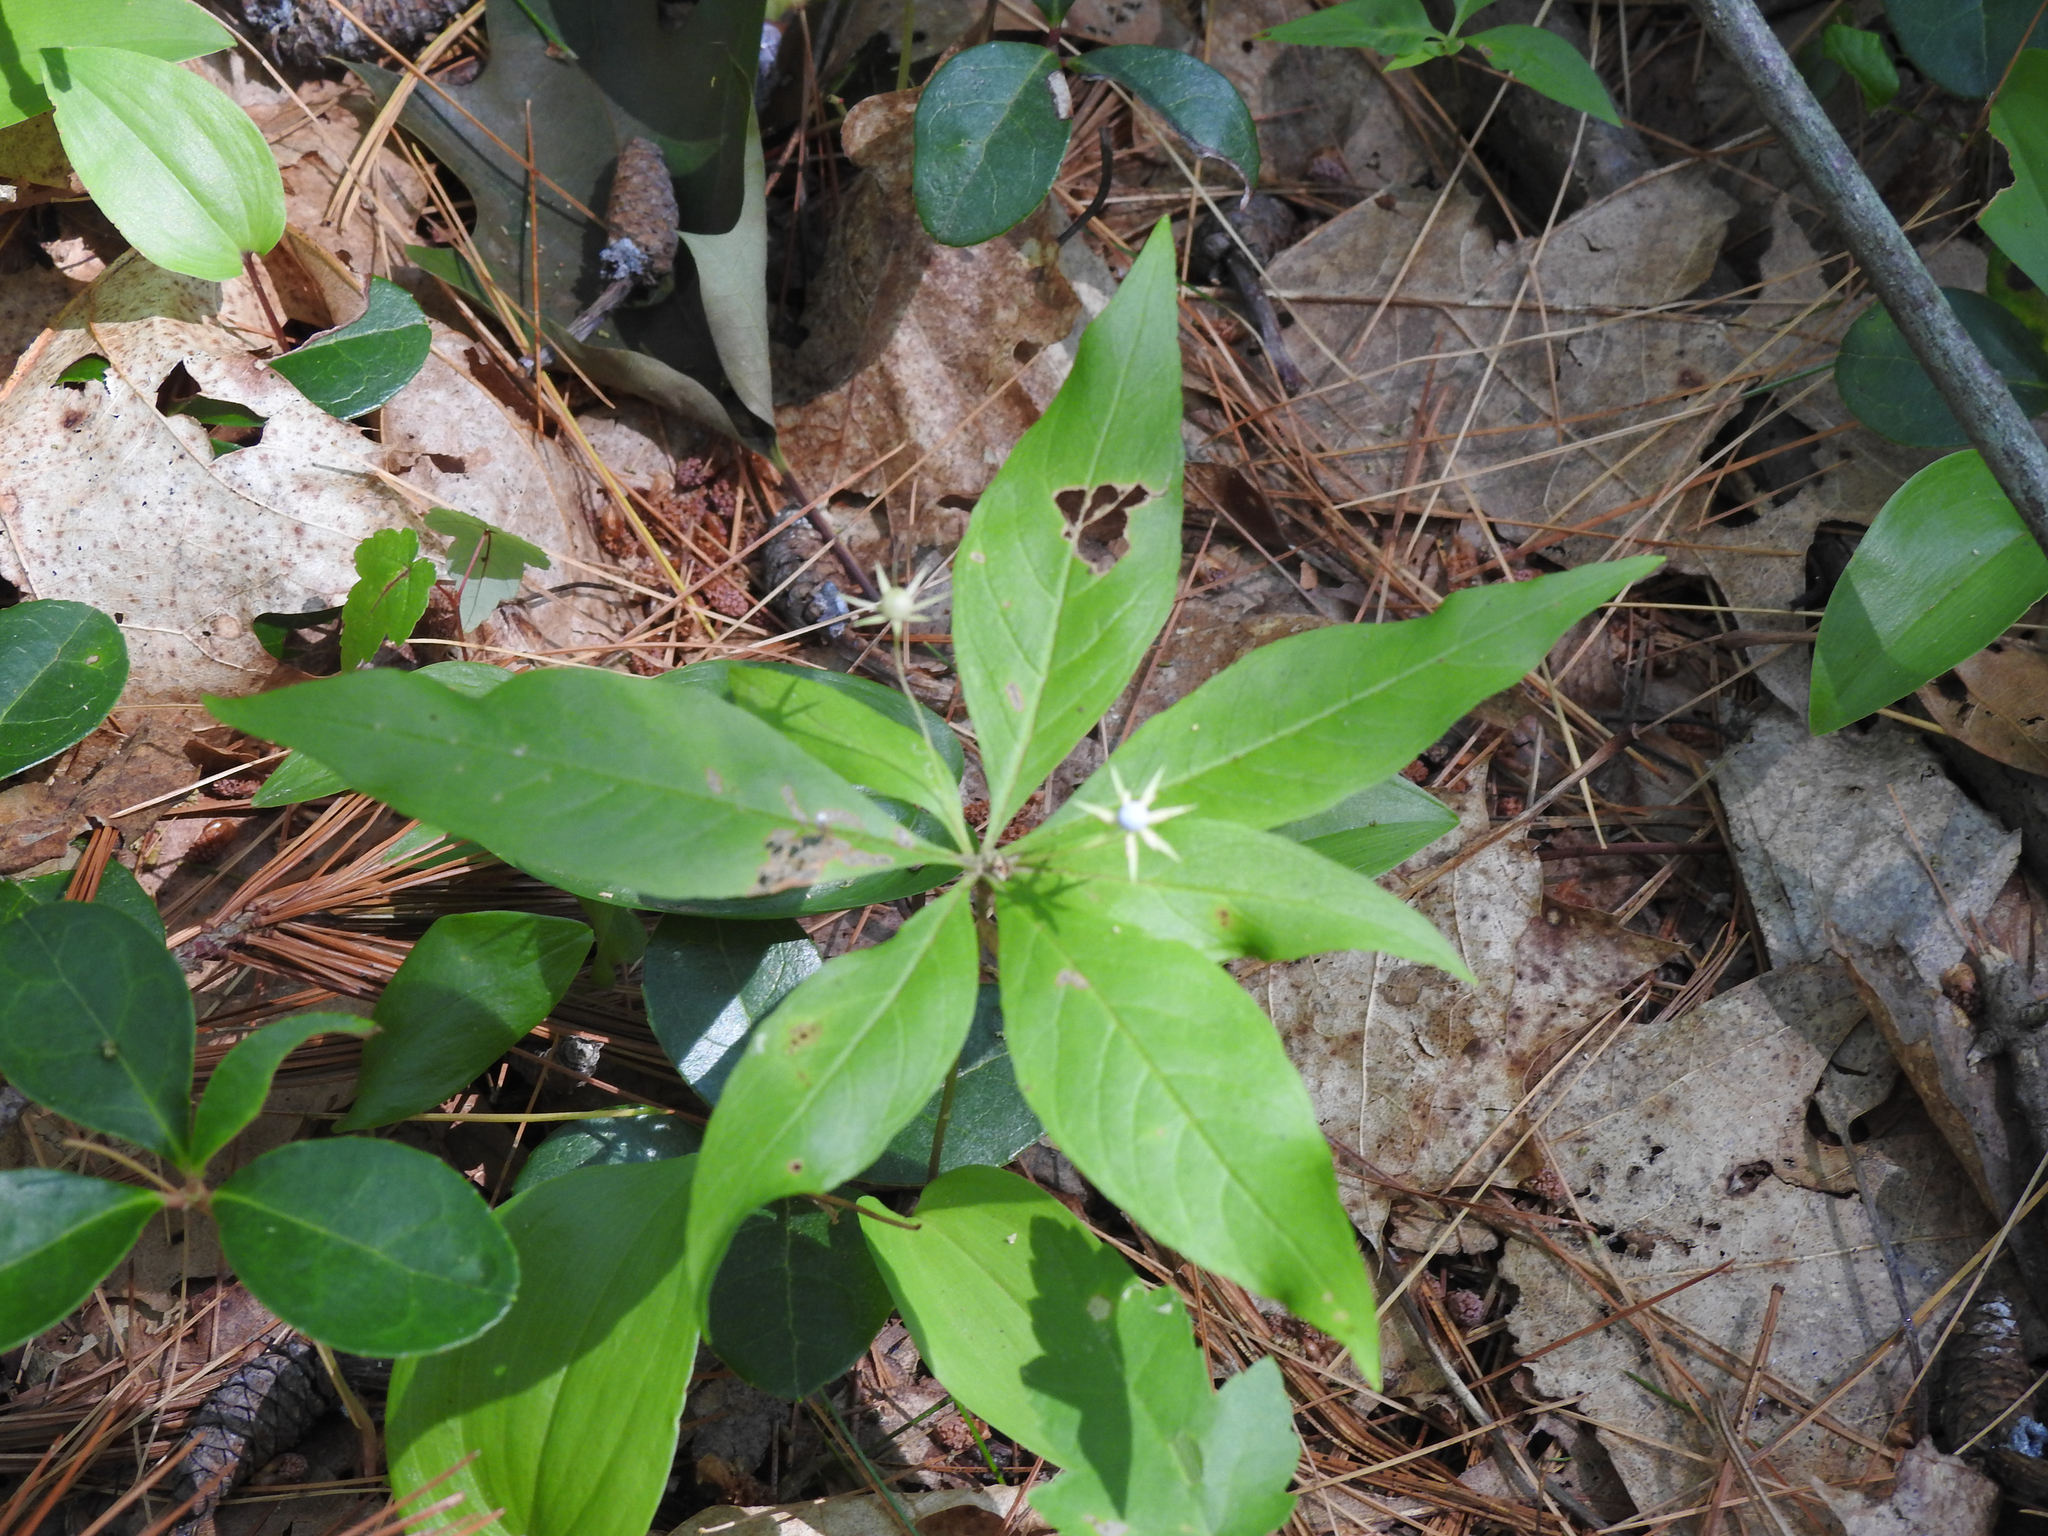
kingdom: Plantae
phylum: Tracheophyta
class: Magnoliopsida
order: Ericales
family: Primulaceae
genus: Lysimachia
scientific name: Lysimachia borealis
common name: American starflower
